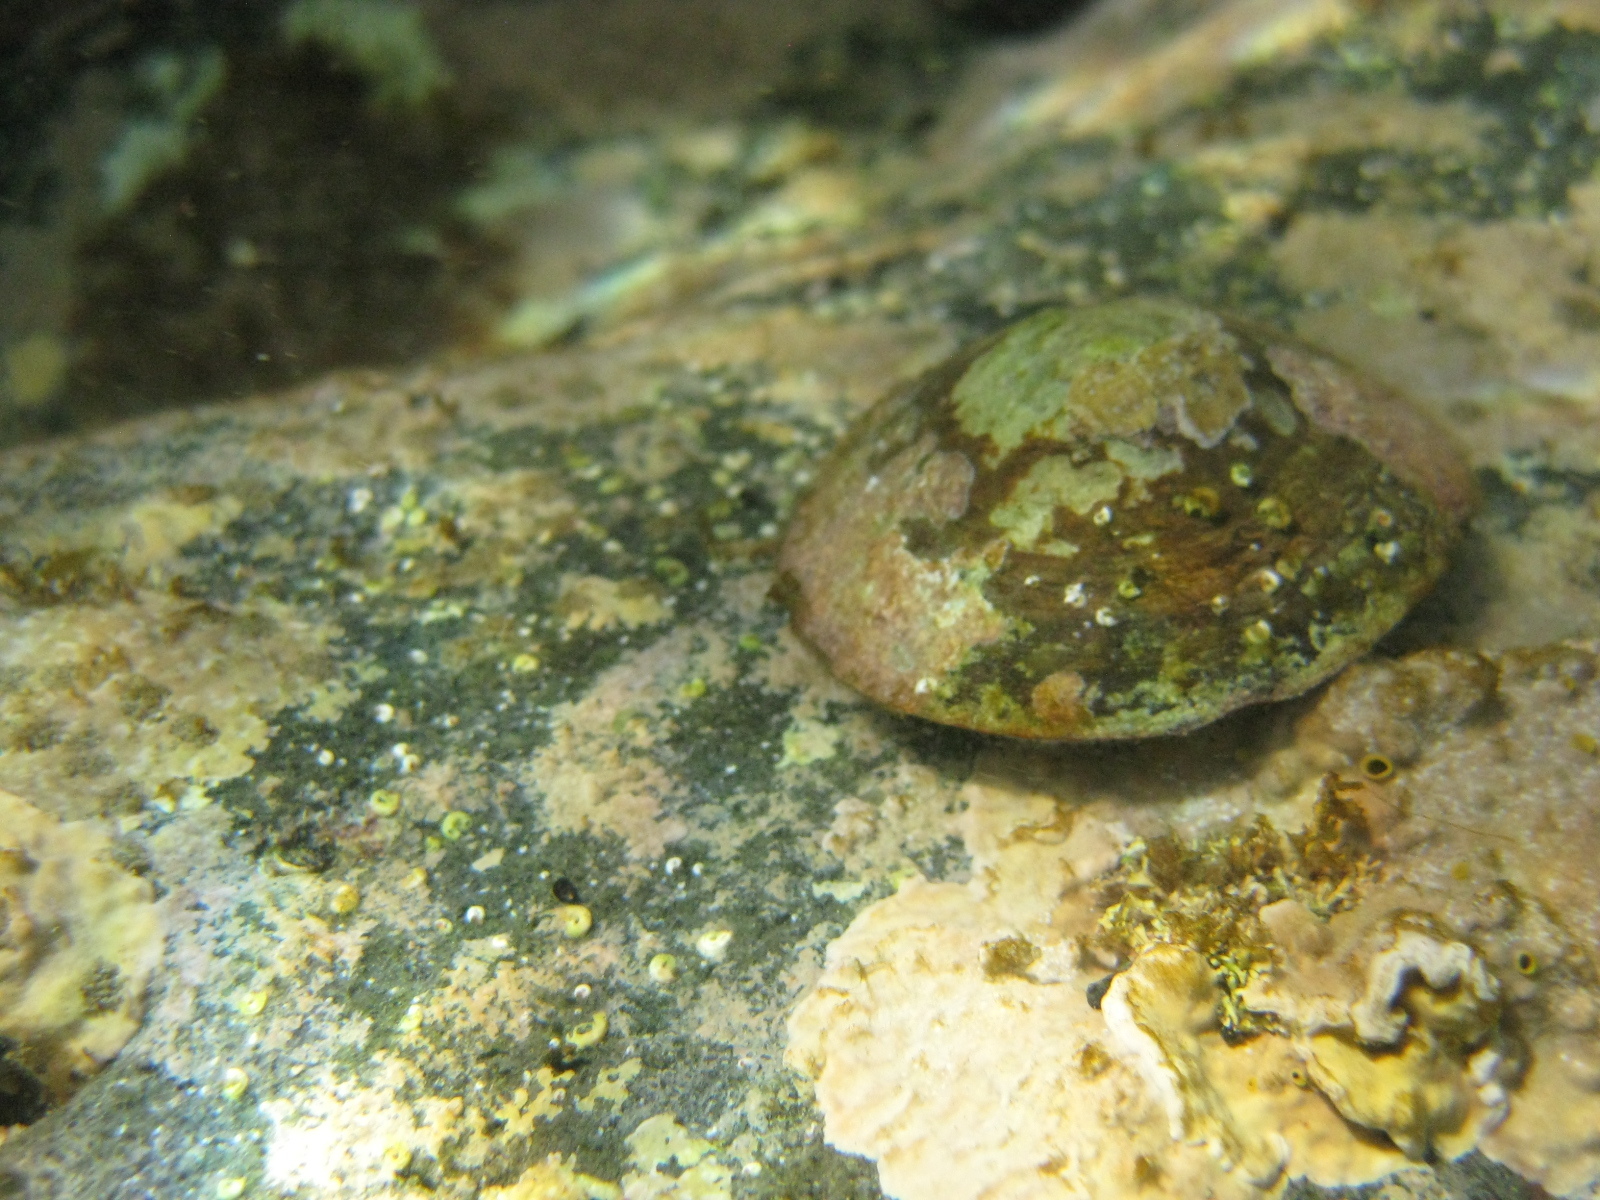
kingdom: Animalia
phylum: Mollusca
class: Gastropoda
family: Nacellidae
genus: Cellana
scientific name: Cellana stellifera
